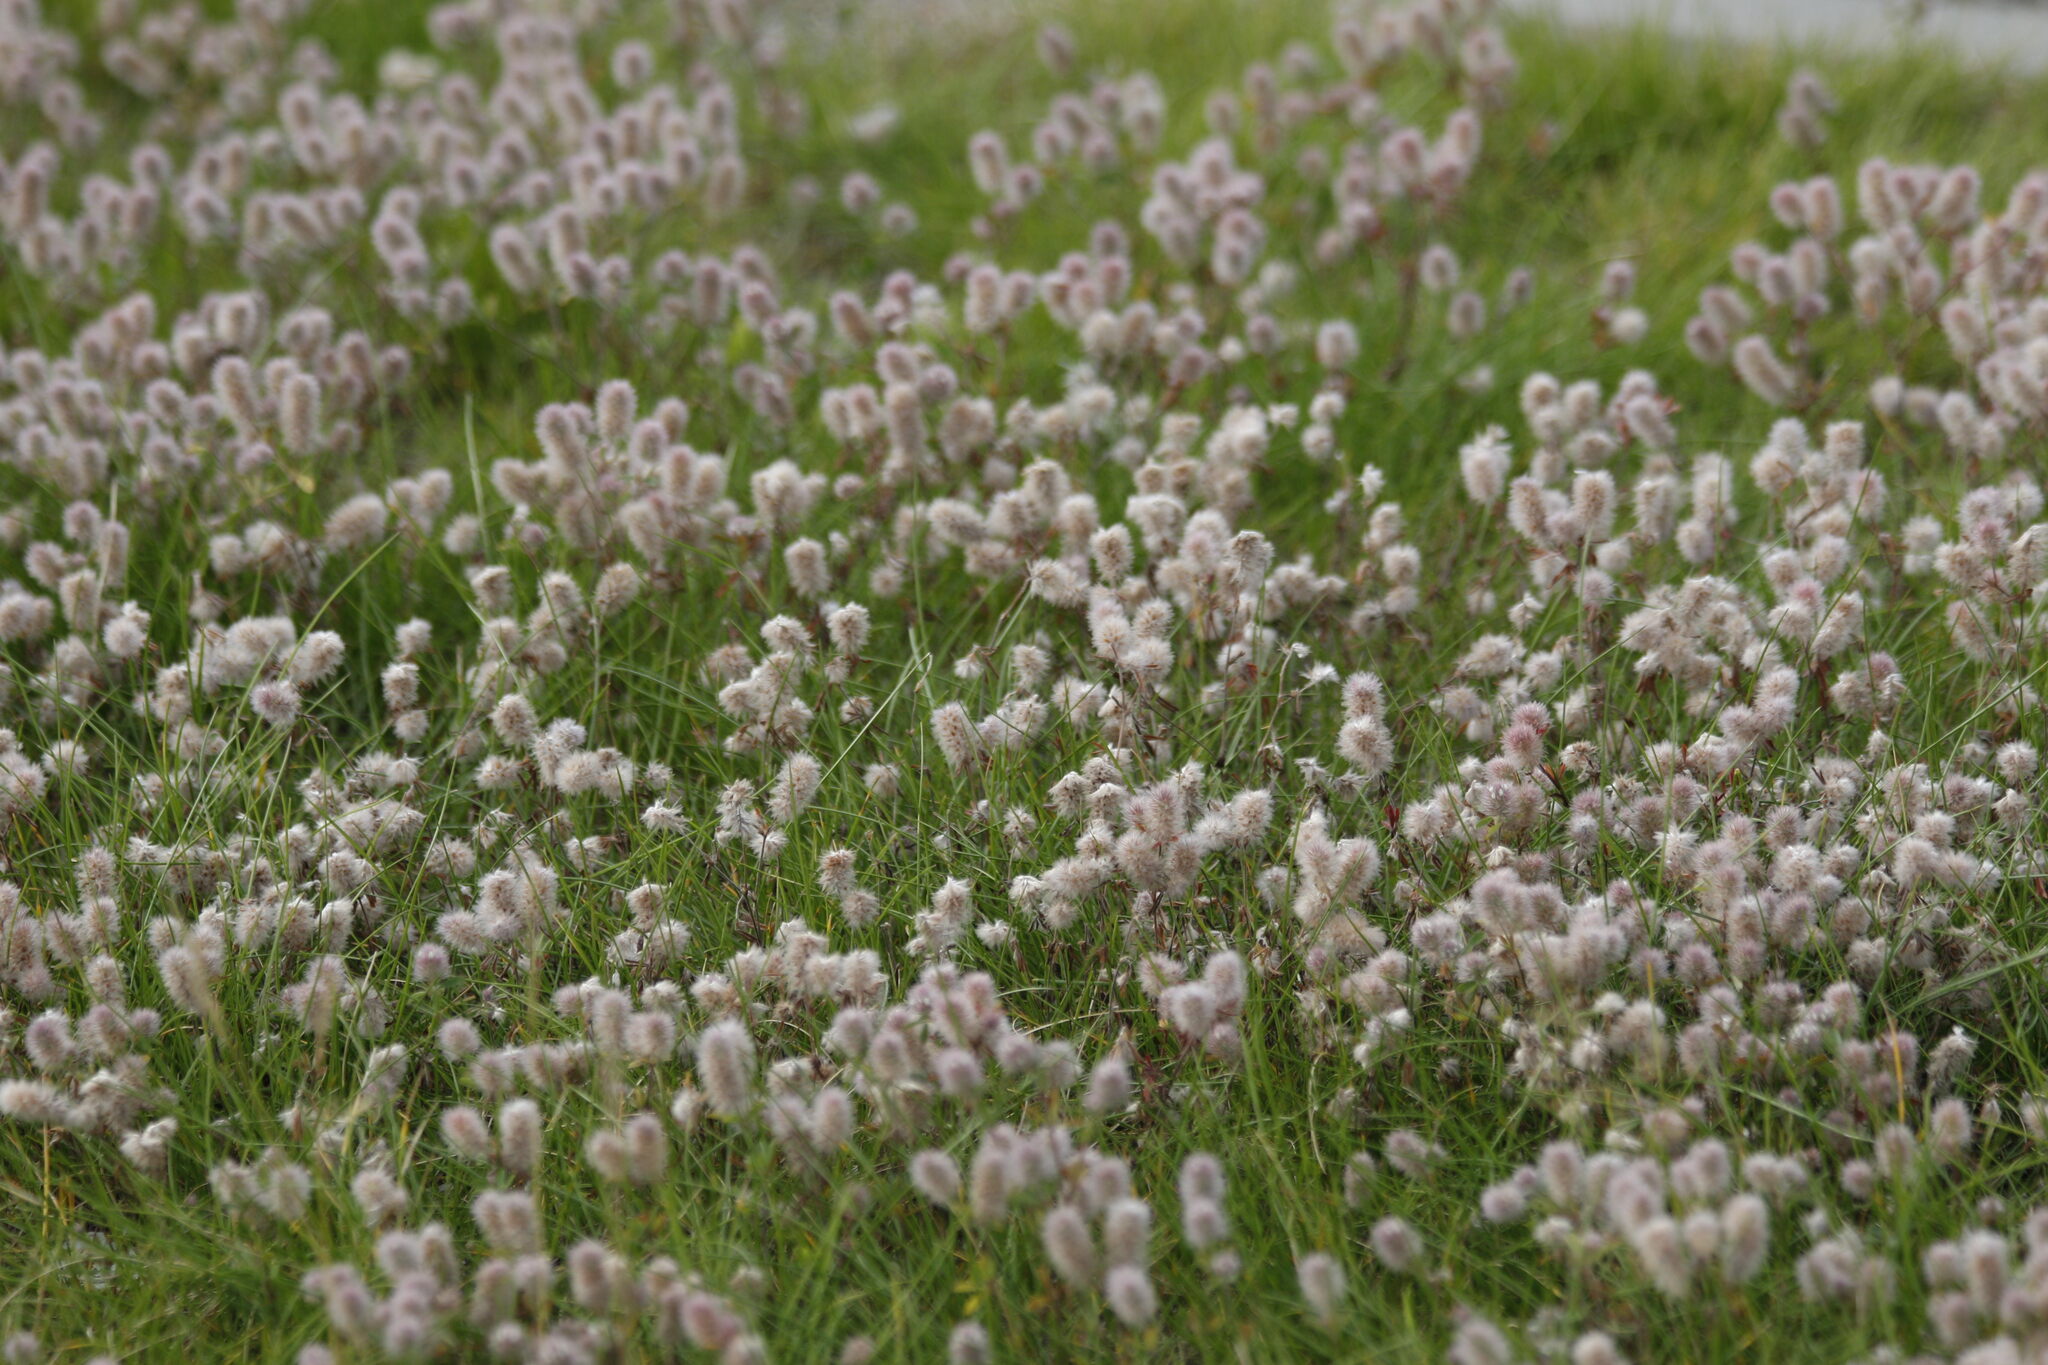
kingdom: Plantae
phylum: Tracheophyta
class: Magnoliopsida
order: Fabales
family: Fabaceae
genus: Trifolium
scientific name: Trifolium arvense
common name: Hare's-foot clover
